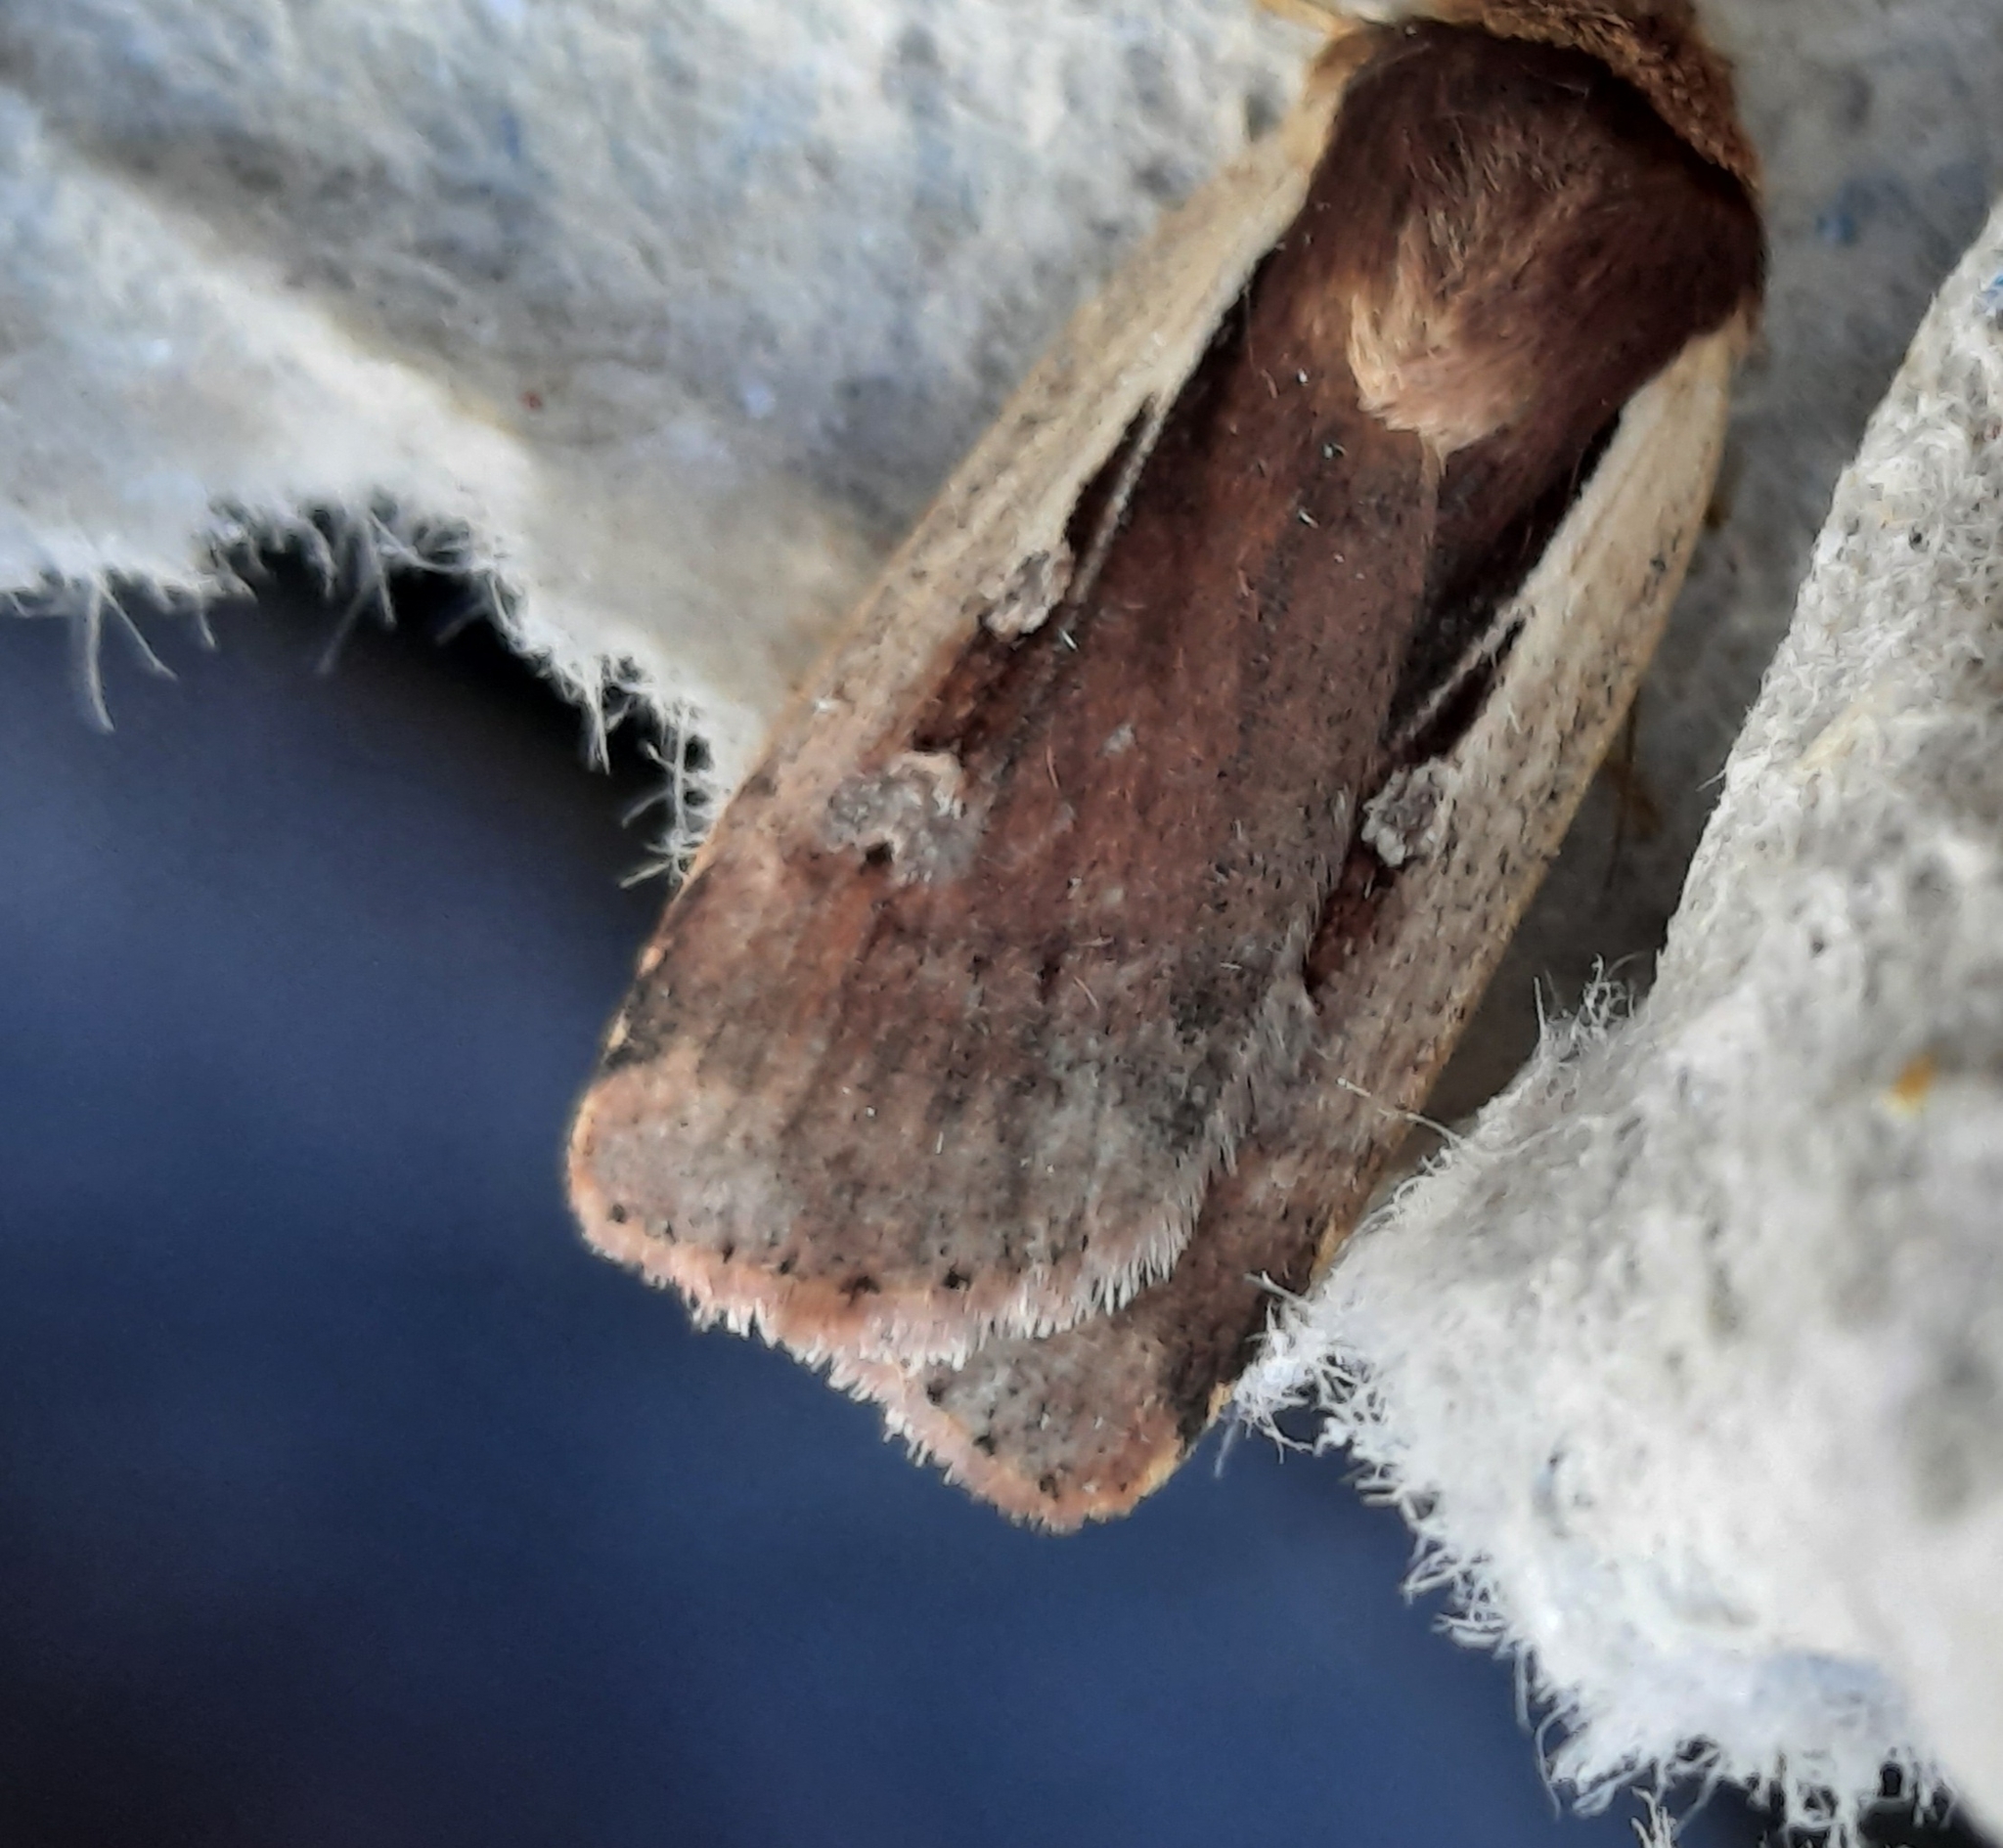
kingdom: Animalia
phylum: Arthropoda
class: Insecta
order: Lepidoptera
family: Noctuidae
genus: Ochropleura
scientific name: Ochropleura plecta
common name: Flame shoulder
